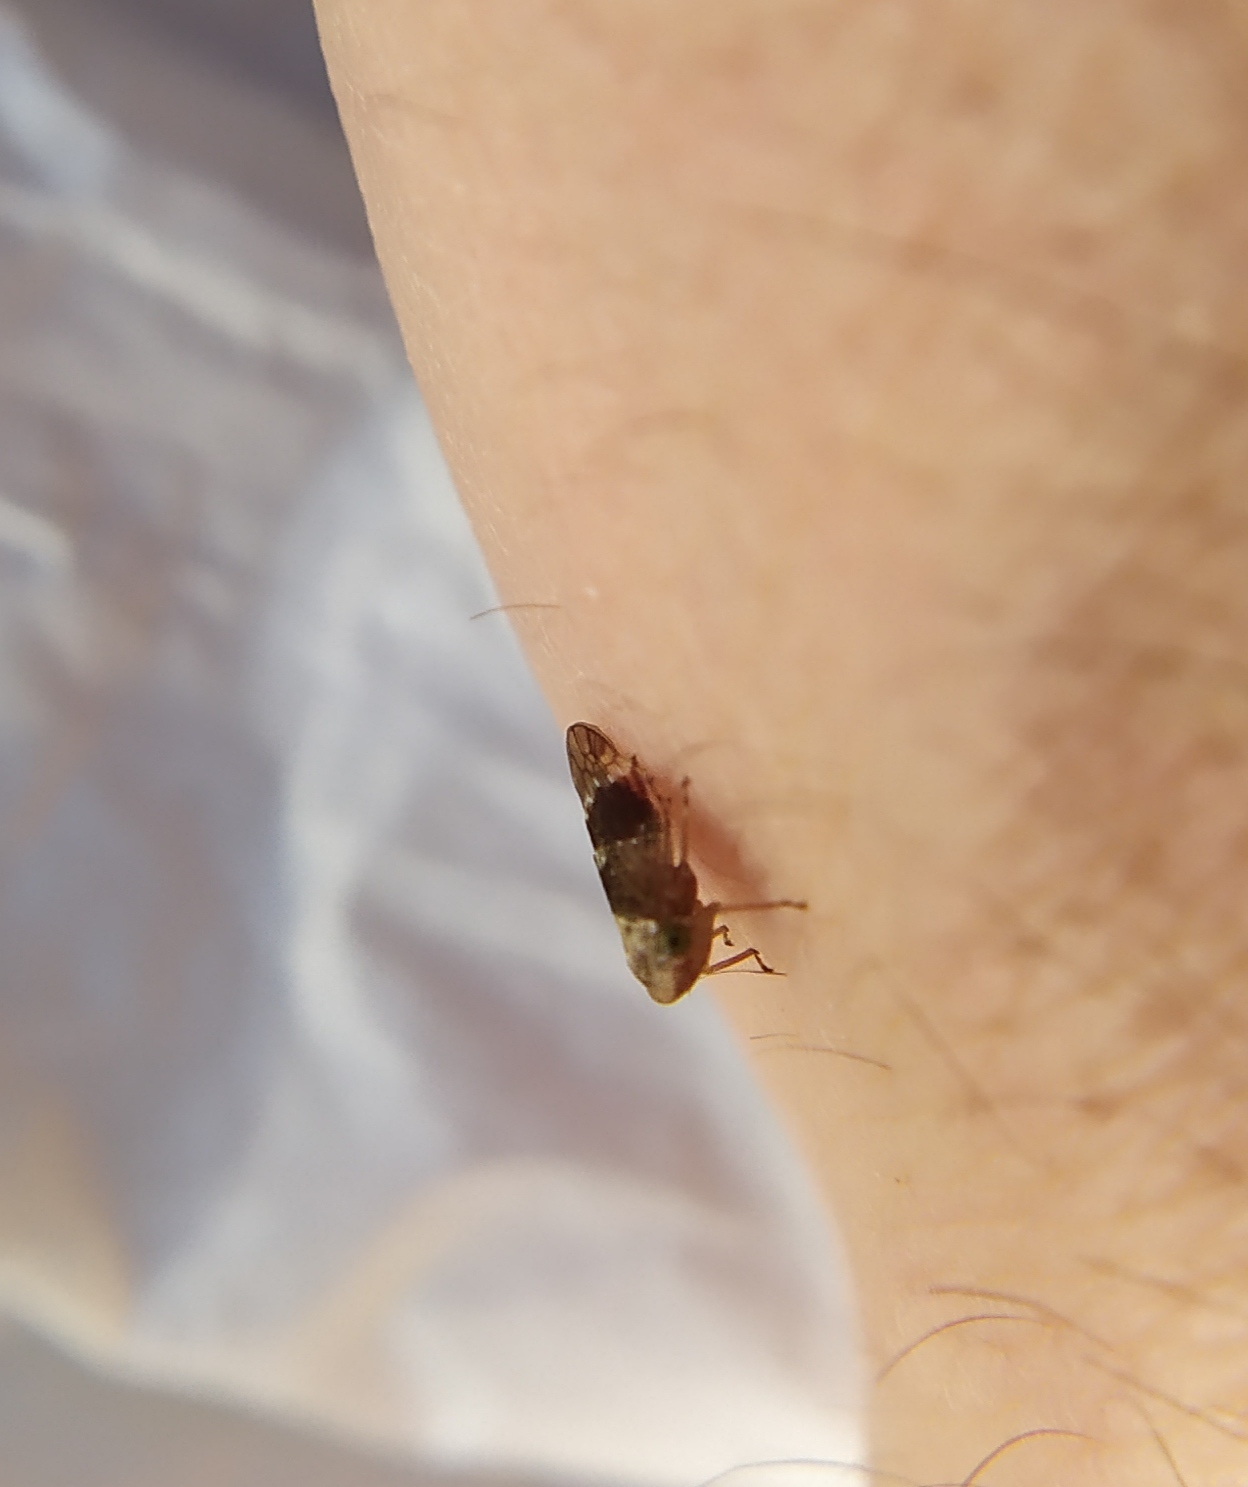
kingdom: Animalia
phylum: Arthropoda
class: Insecta
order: Hemiptera
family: Cicadellidae
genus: Acericerus
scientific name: Acericerus ribauti
